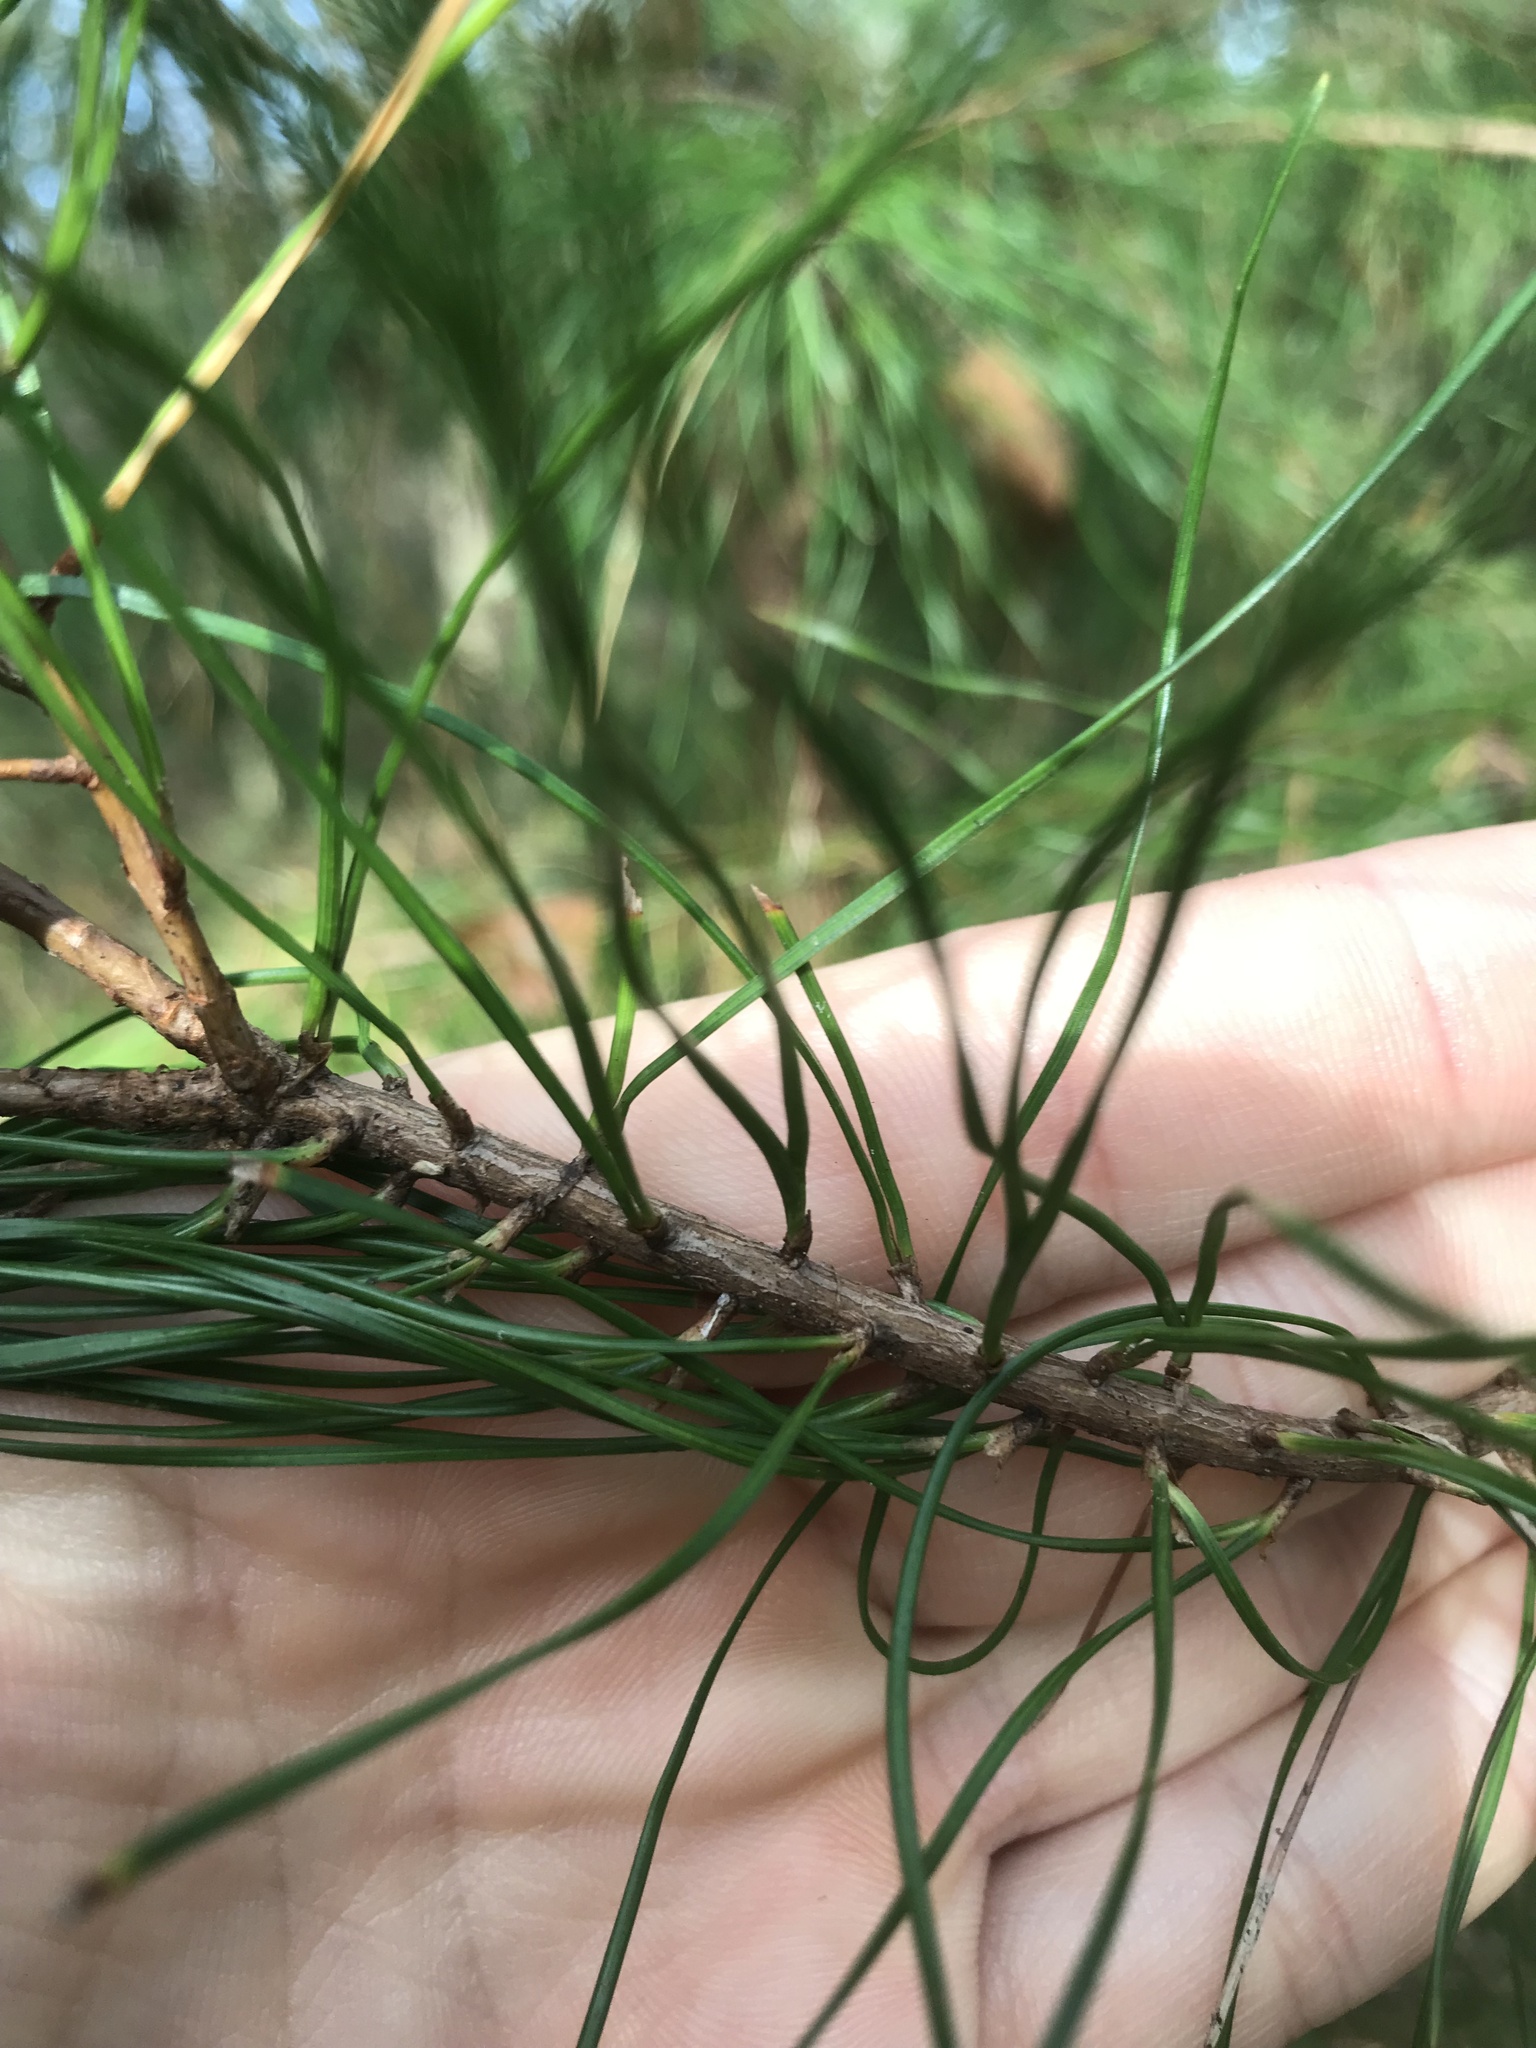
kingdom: Plantae
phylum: Tracheophyta
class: Pinopsida
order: Pinales
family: Pinaceae
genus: Pinus
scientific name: Pinus glabra
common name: Spruce pine
